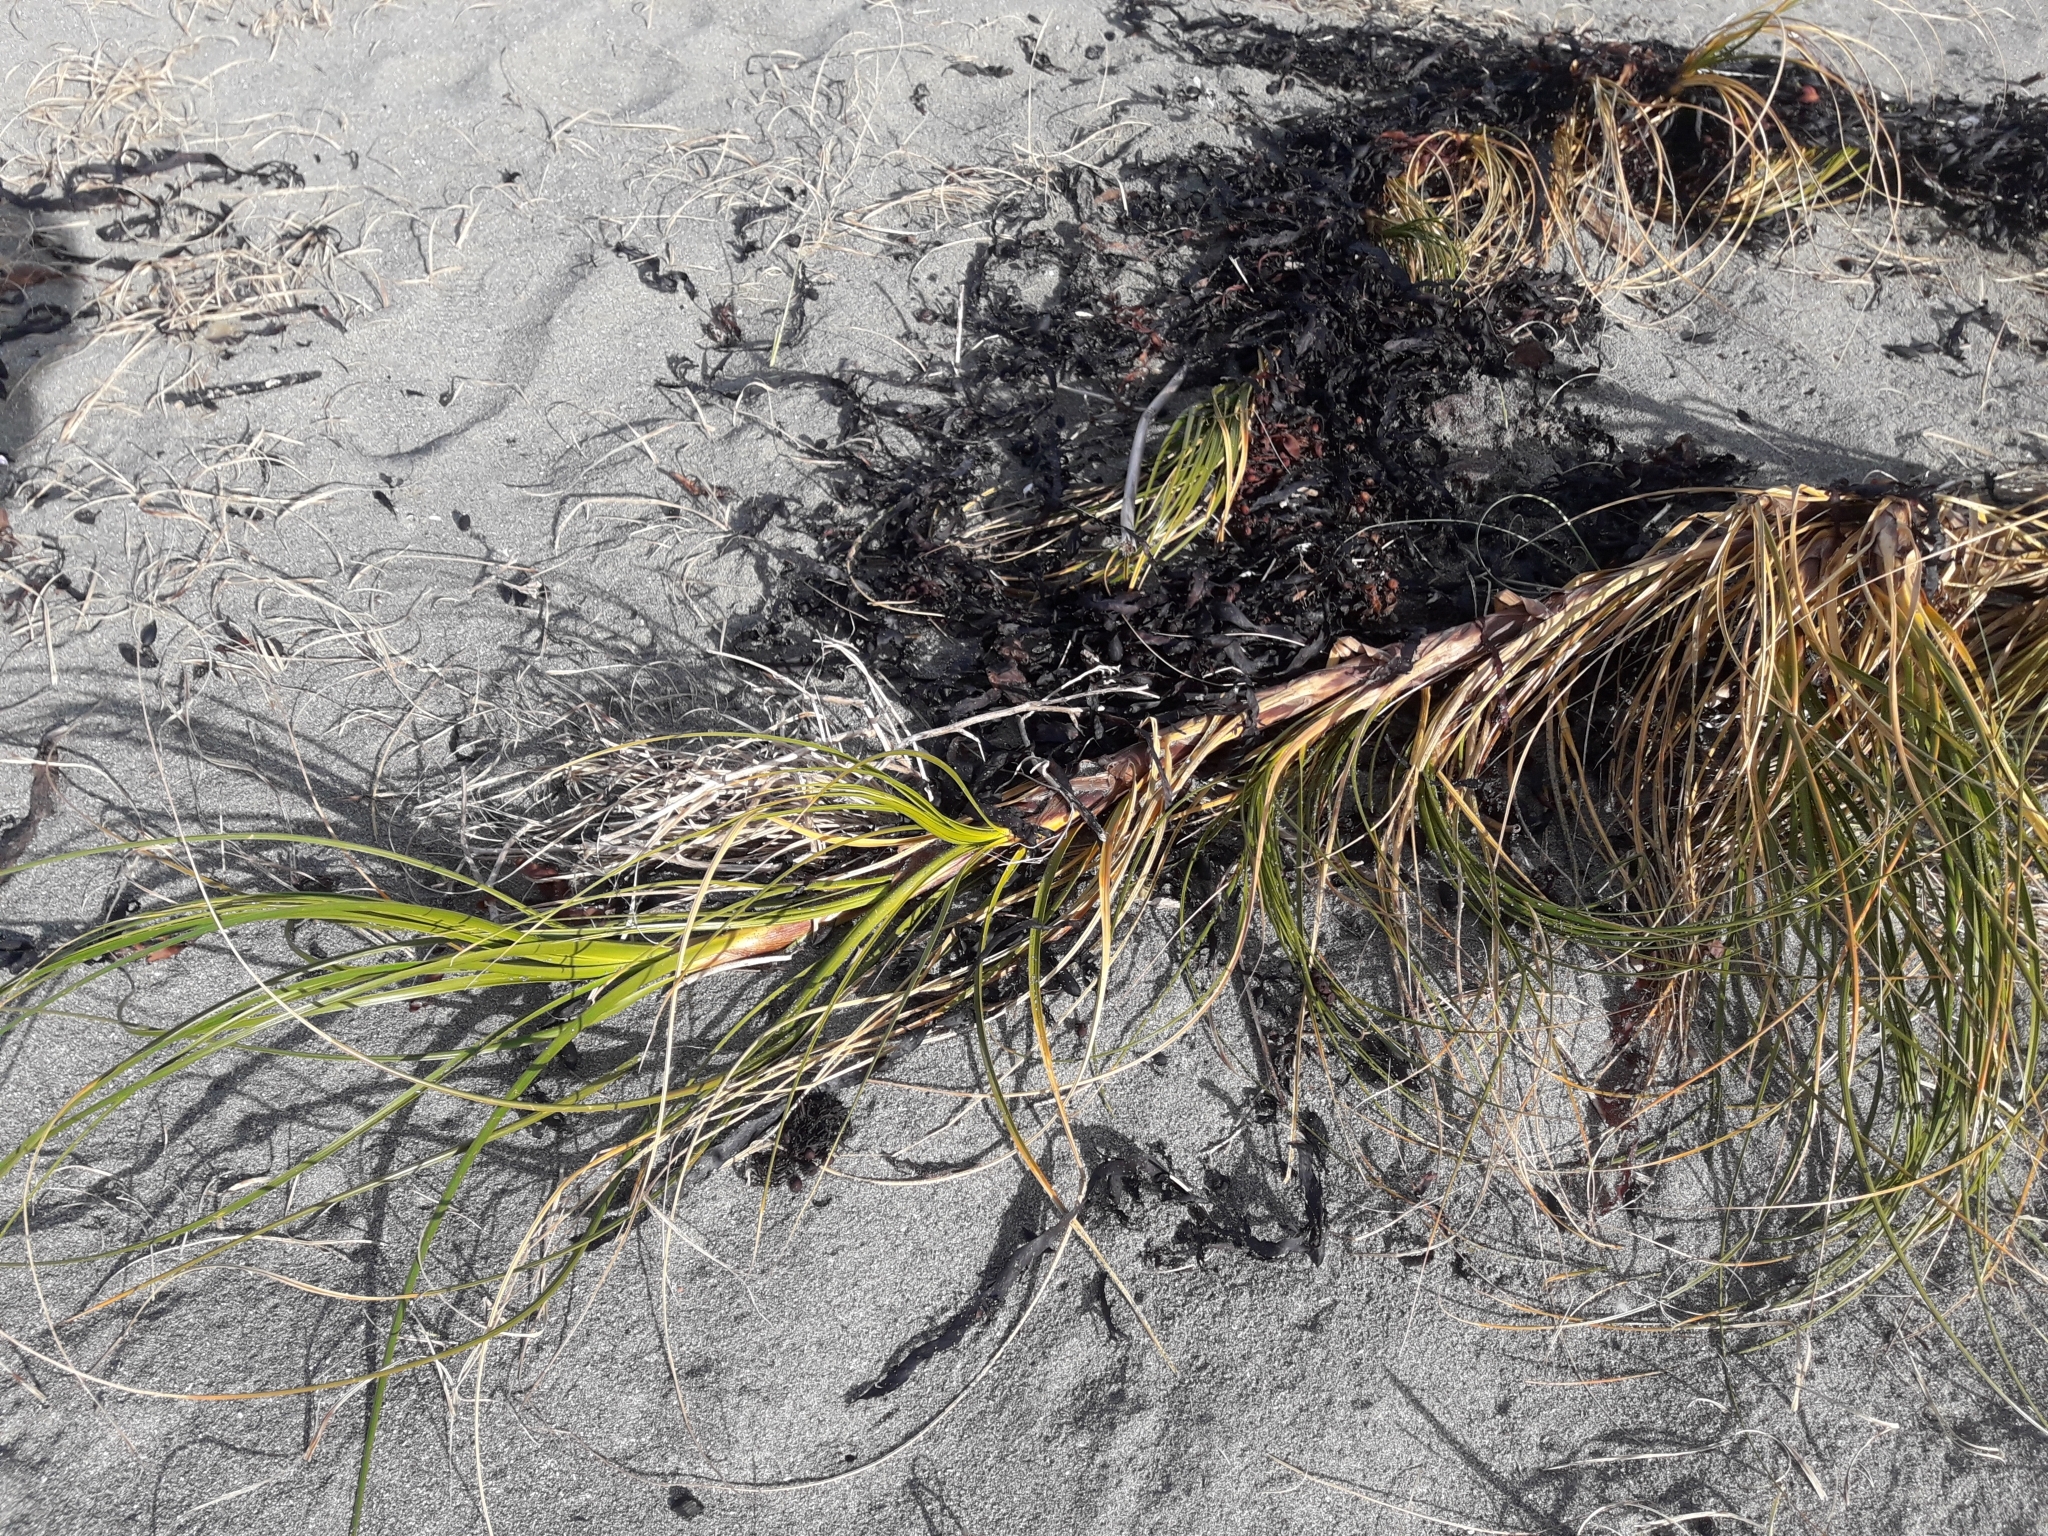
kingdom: Plantae
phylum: Tracheophyta
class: Liliopsida
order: Poales
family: Cyperaceae
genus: Ficinia
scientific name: Ficinia spiralis
